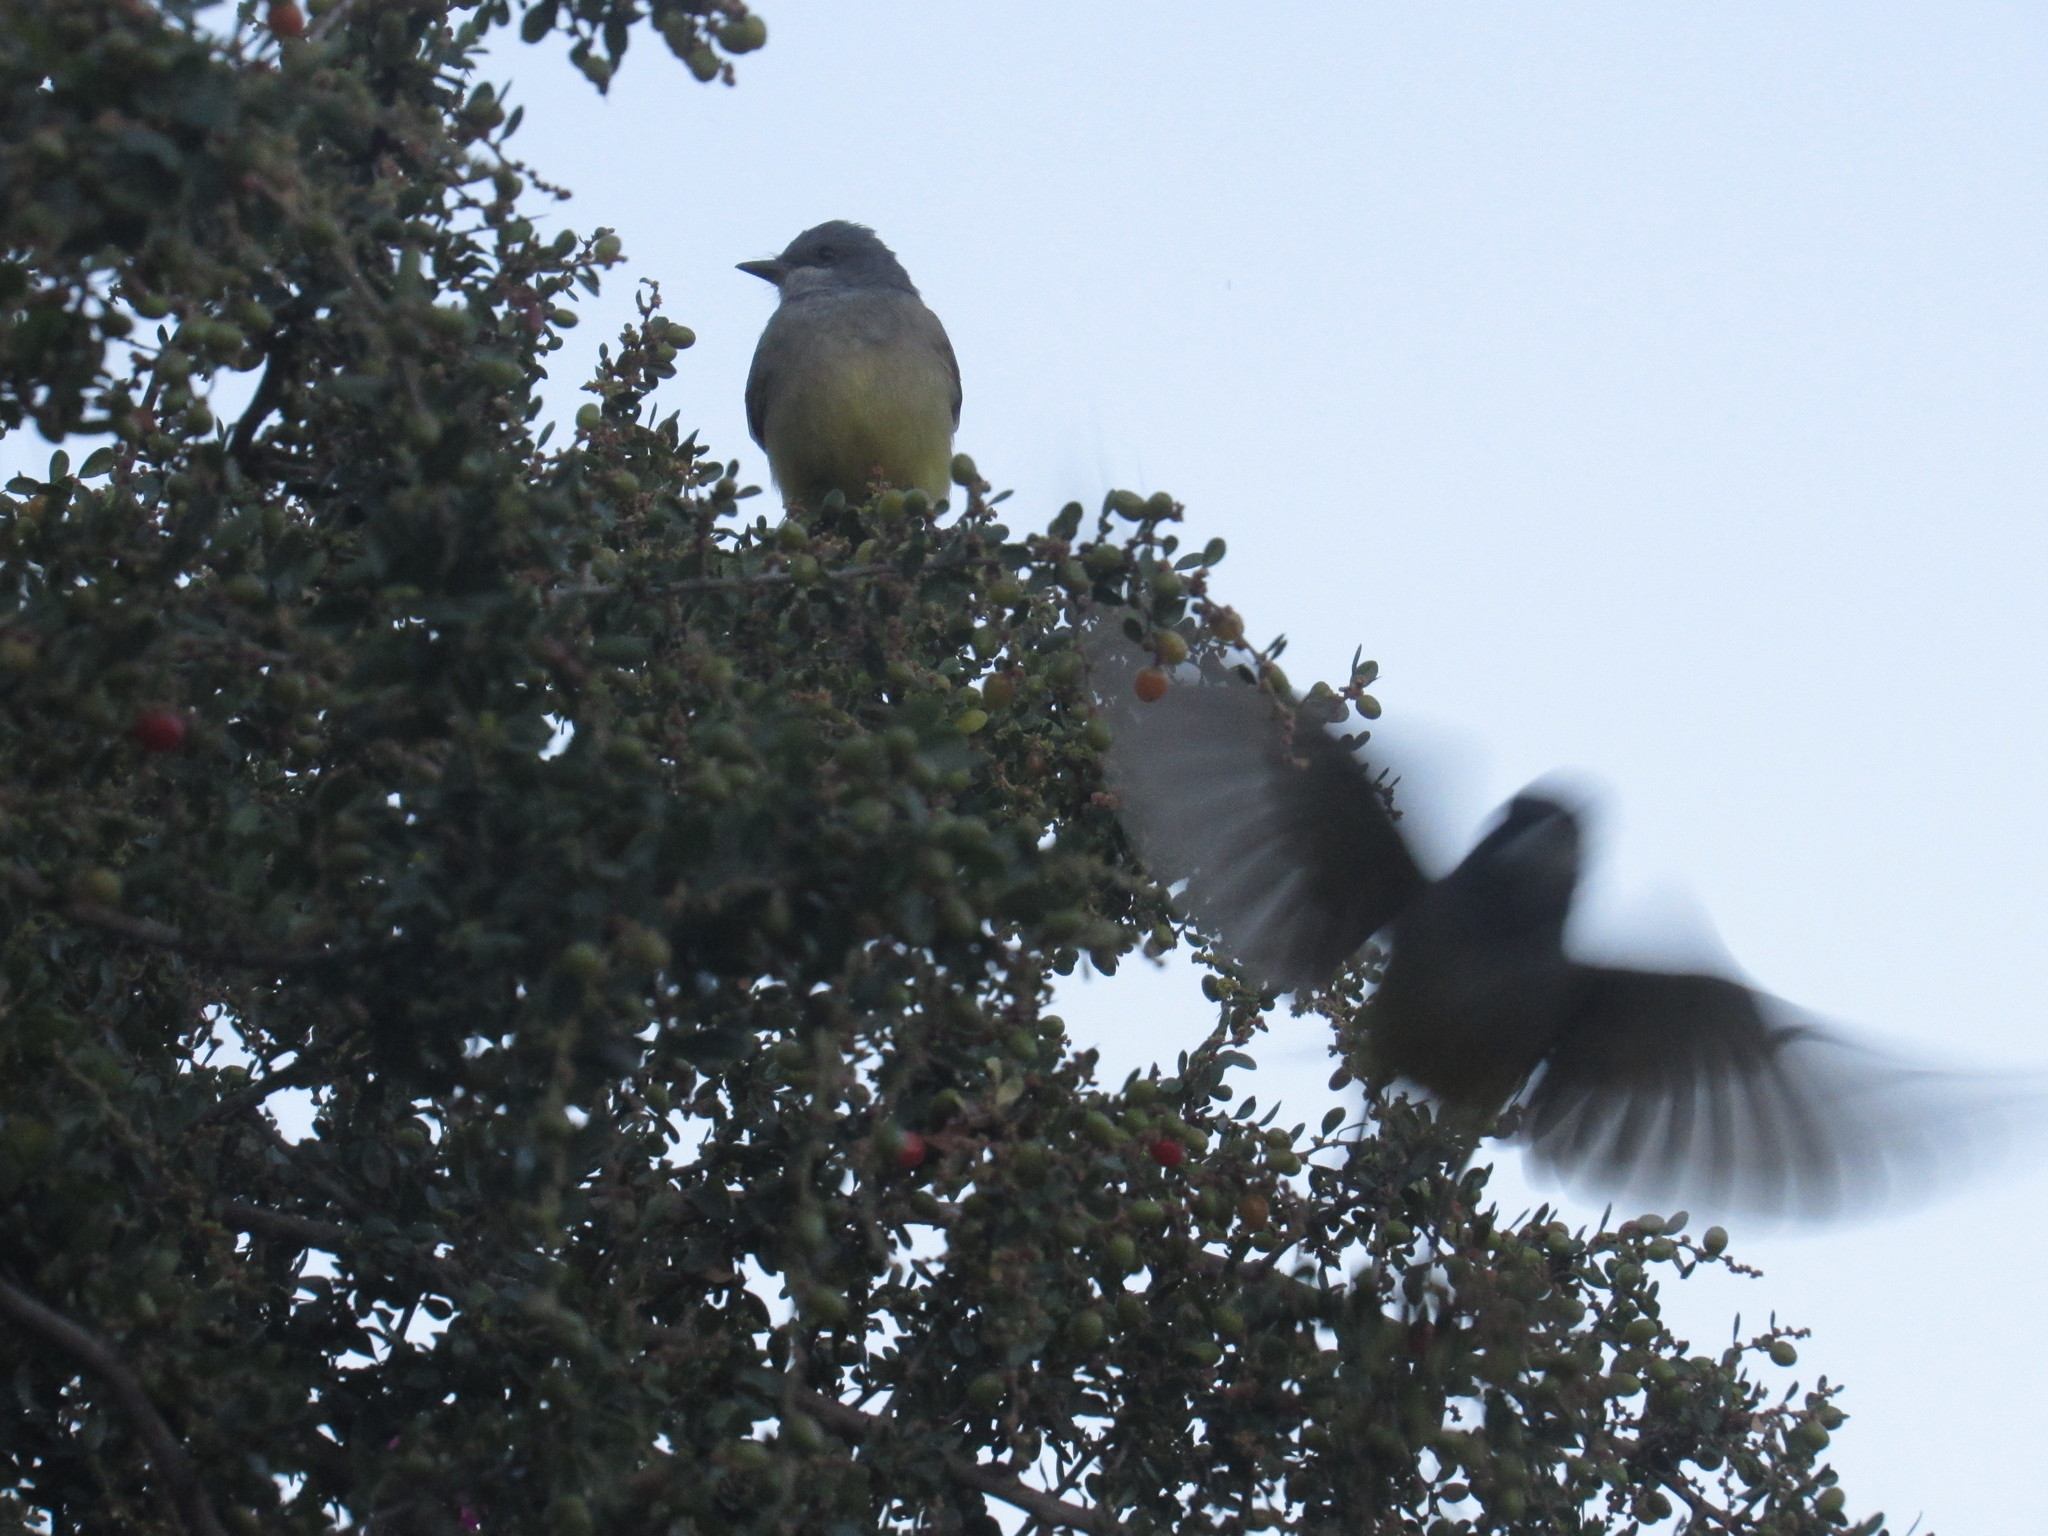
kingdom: Animalia
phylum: Chordata
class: Aves
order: Passeriformes
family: Tyrannidae
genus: Tyrannus
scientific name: Tyrannus vociferans
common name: Cassin's kingbird
